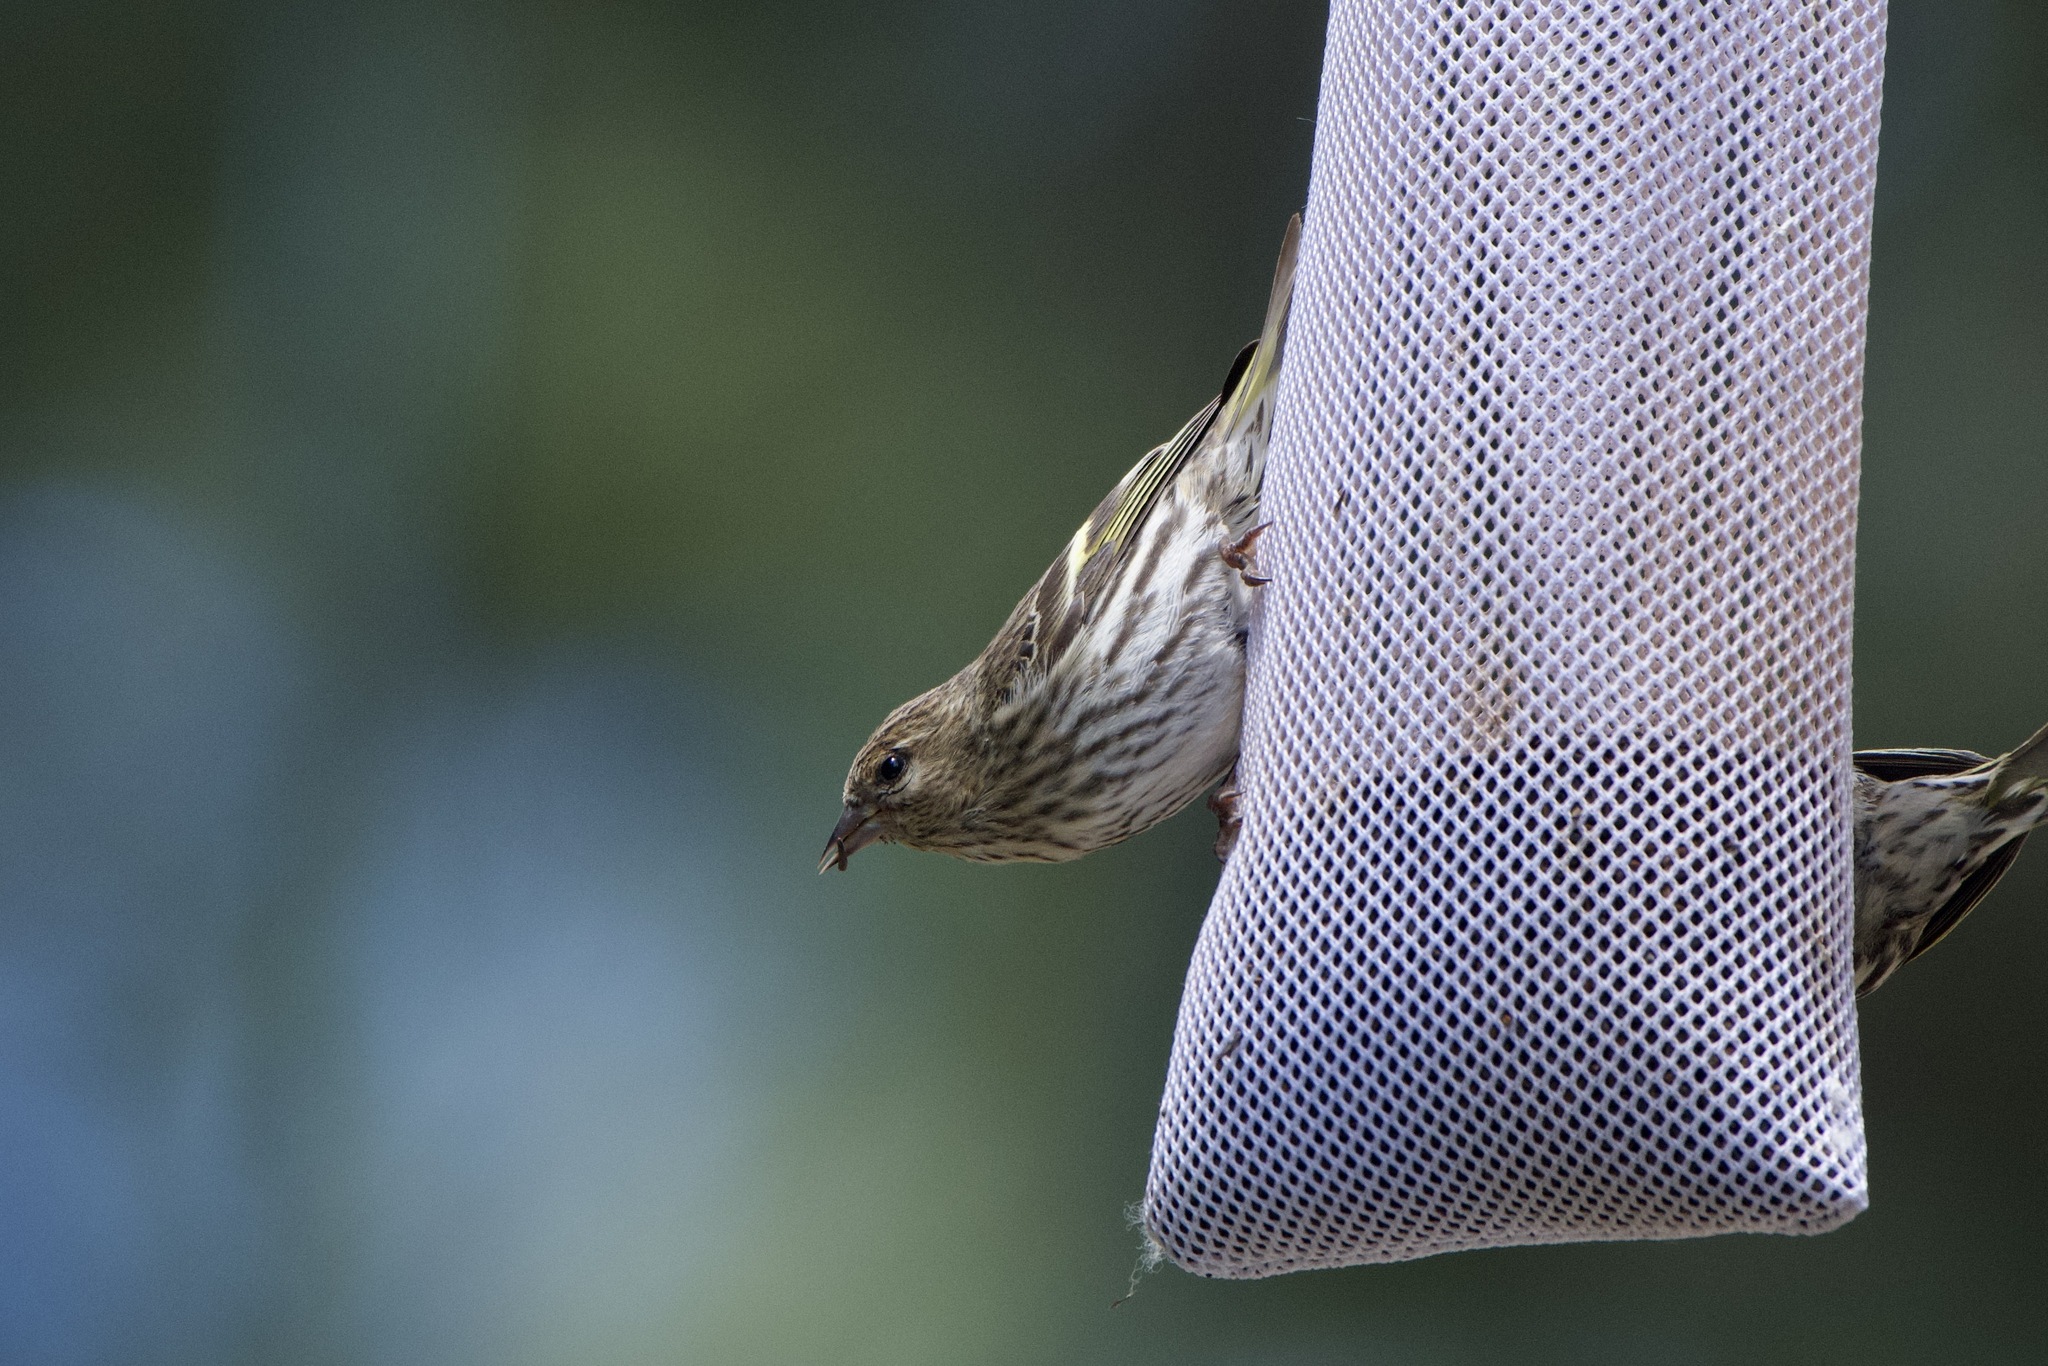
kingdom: Animalia
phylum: Chordata
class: Aves
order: Passeriformes
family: Fringillidae
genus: Spinus
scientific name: Spinus pinus
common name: Pine siskin
